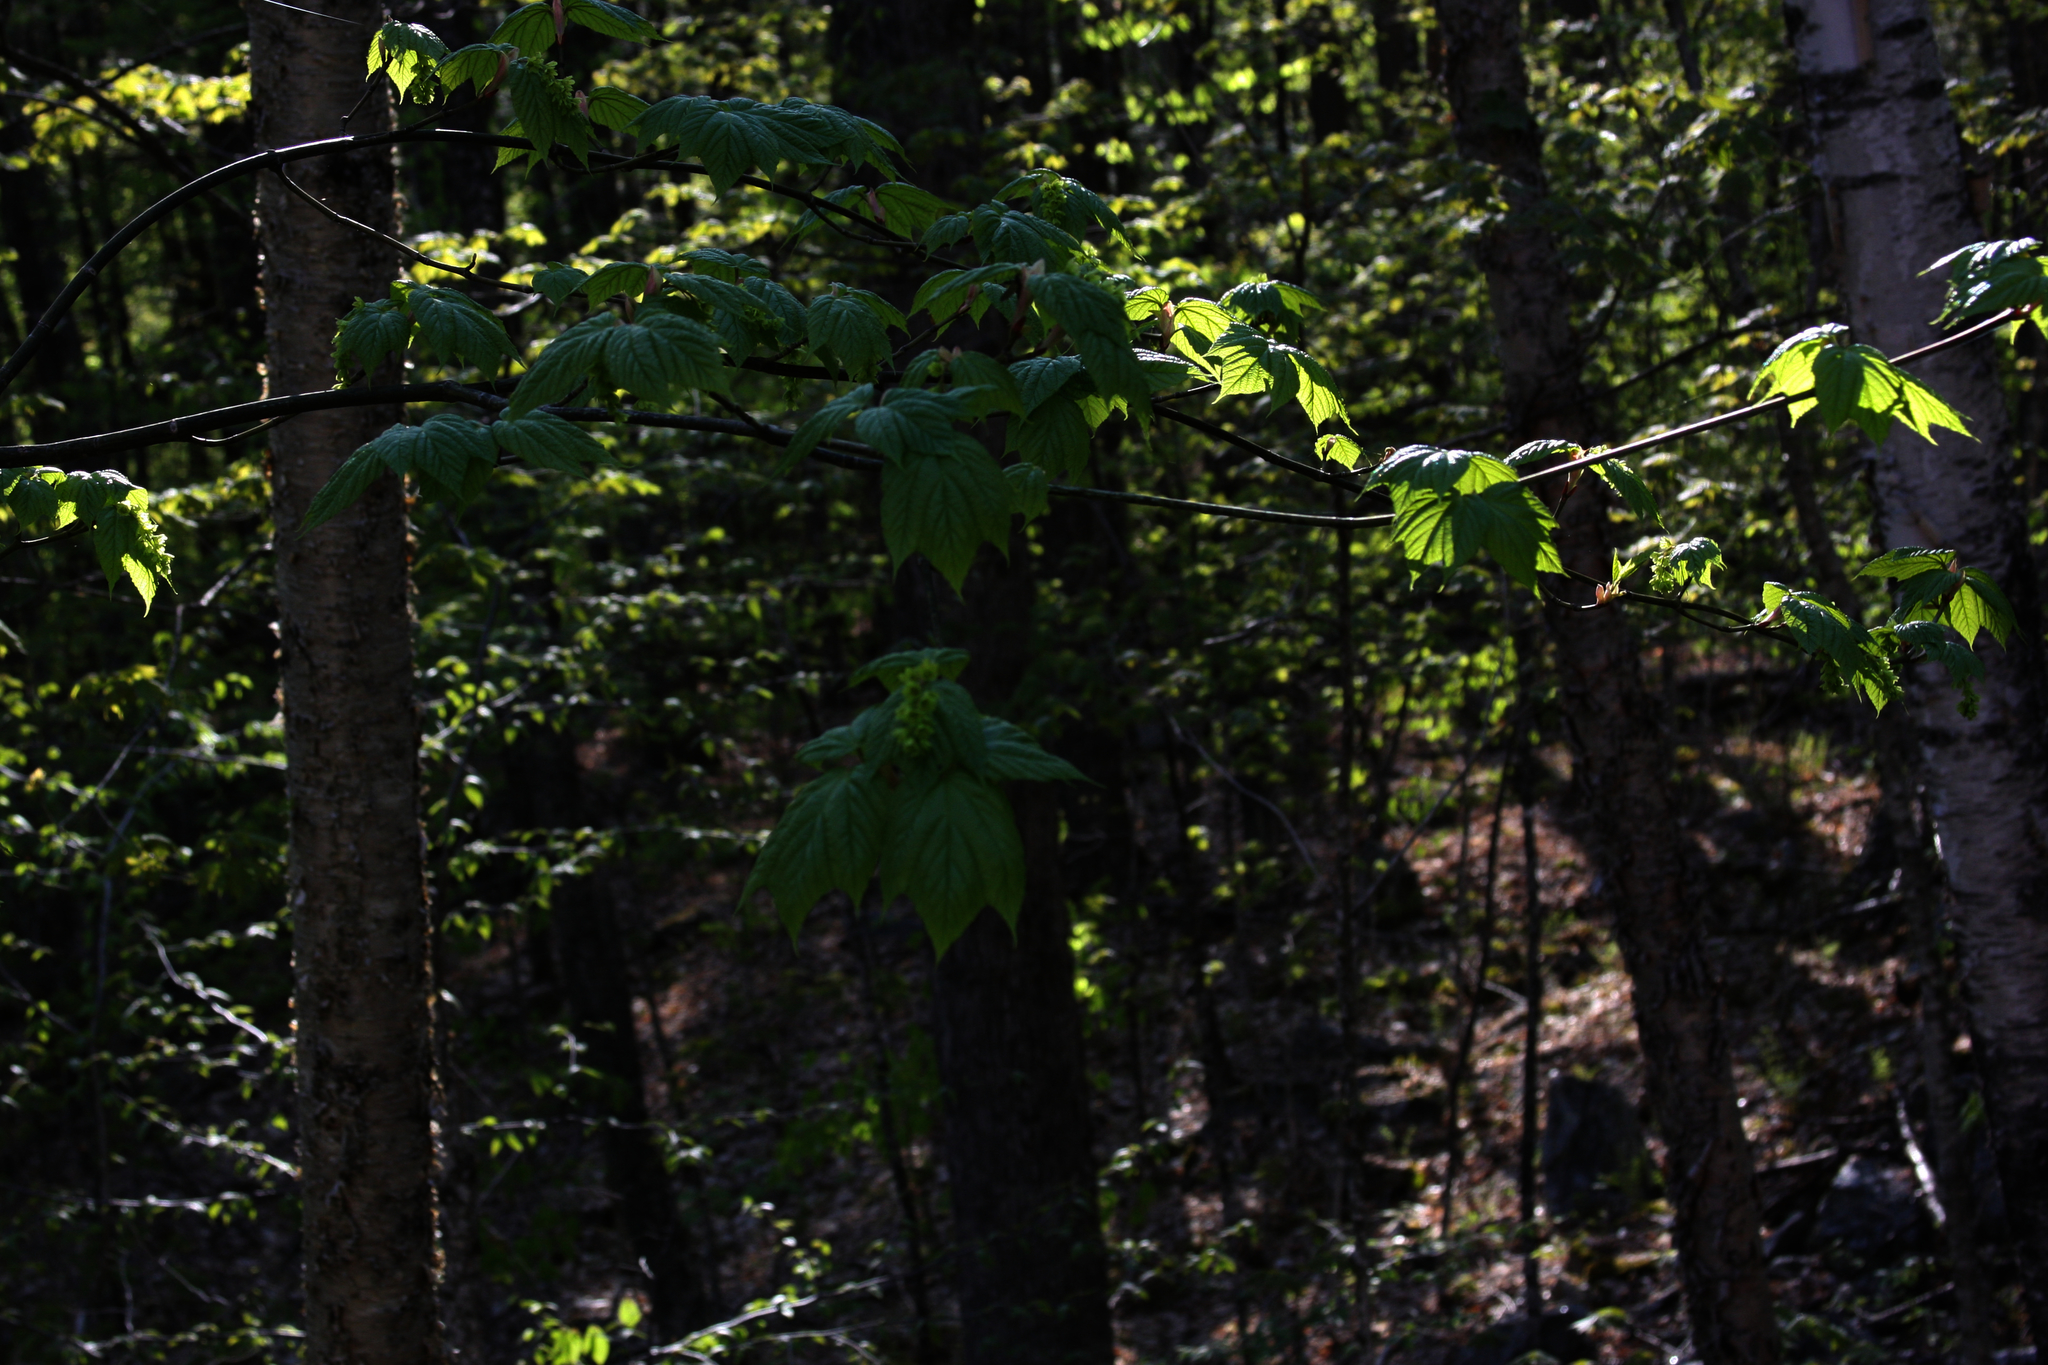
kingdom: Plantae
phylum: Tracheophyta
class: Magnoliopsida
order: Sapindales
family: Sapindaceae
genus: Acer
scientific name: Acer pensylvanicum
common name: Moosewood
